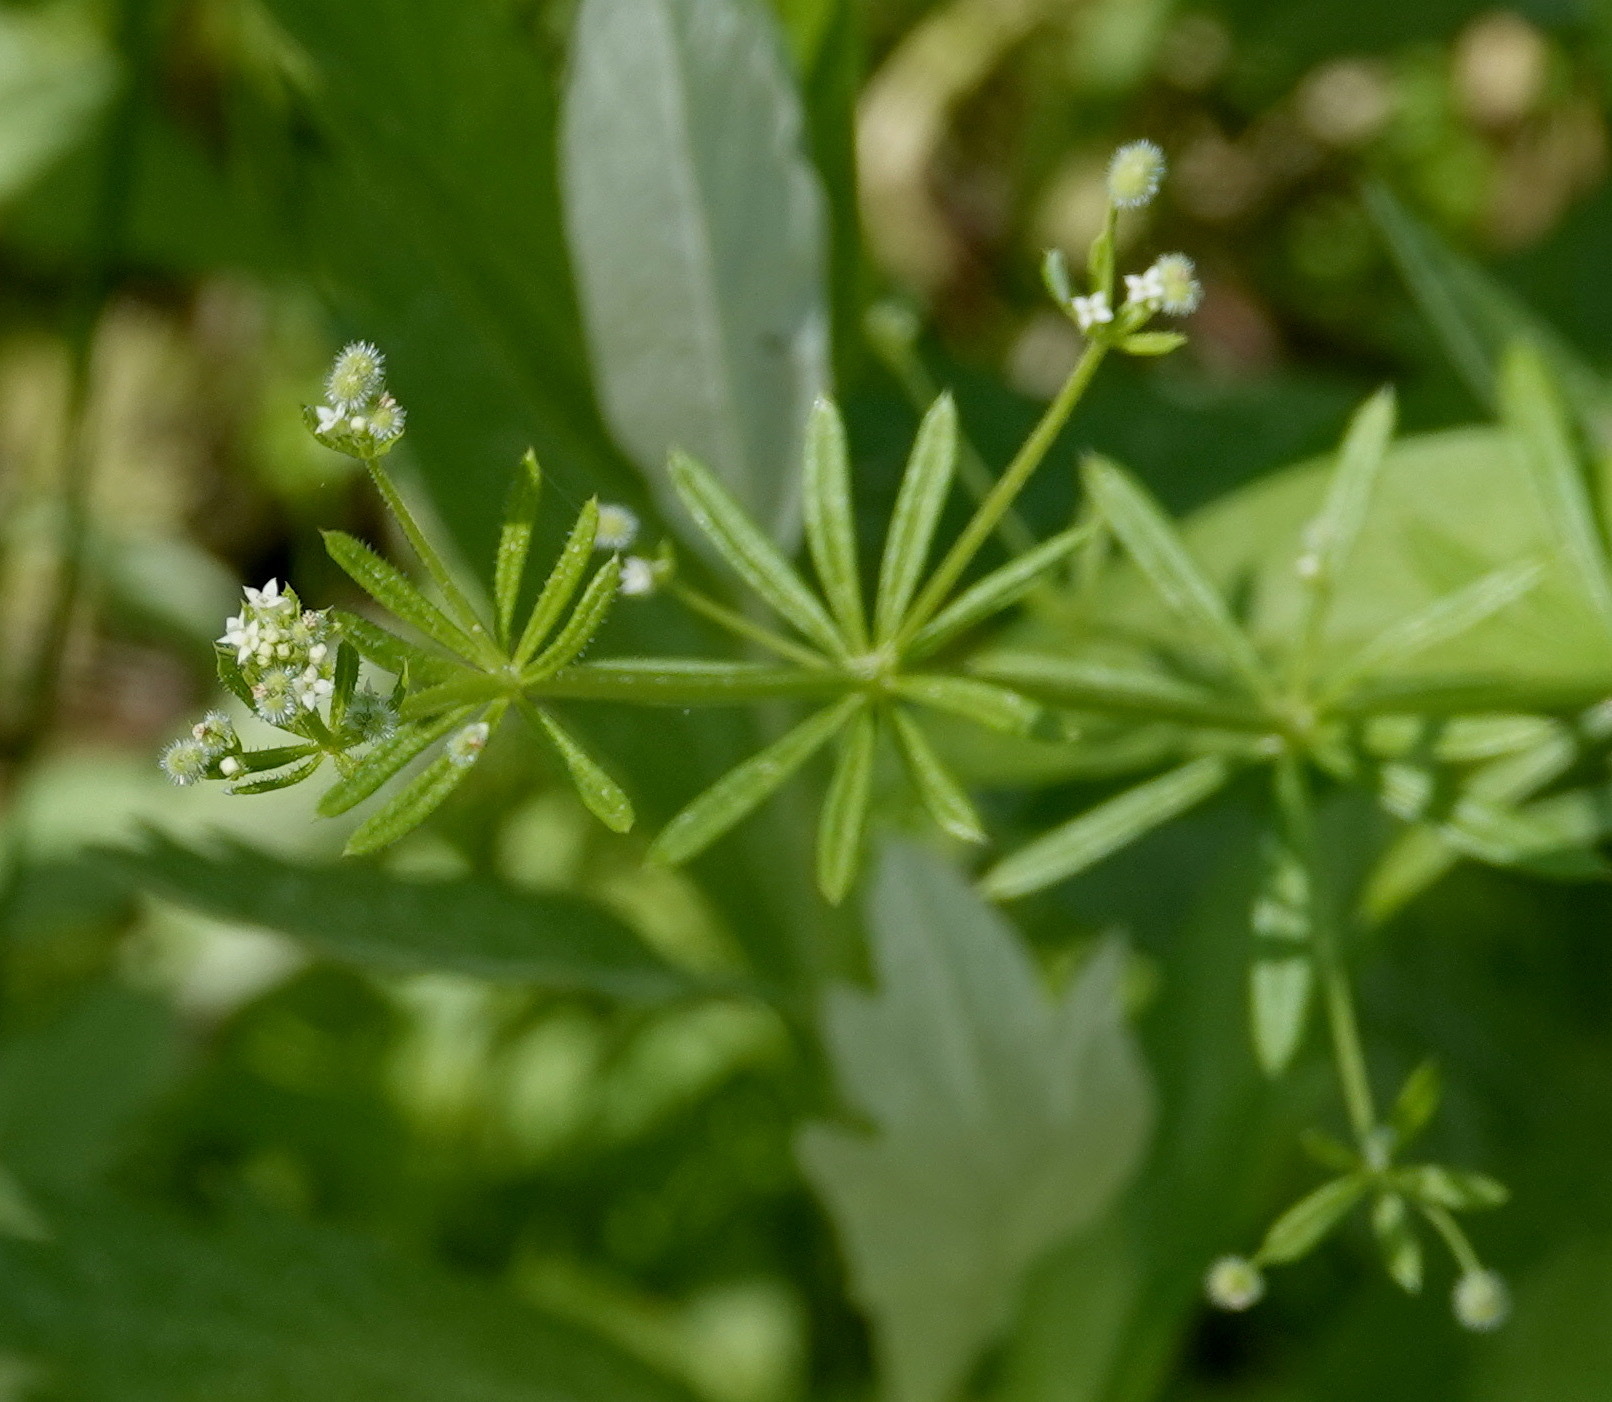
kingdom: Plantae
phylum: Tracheophyta
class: Magnoliopsida
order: Gentianales
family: Rubiaceae
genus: Galium
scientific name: Galium aparine
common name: Cleavers
